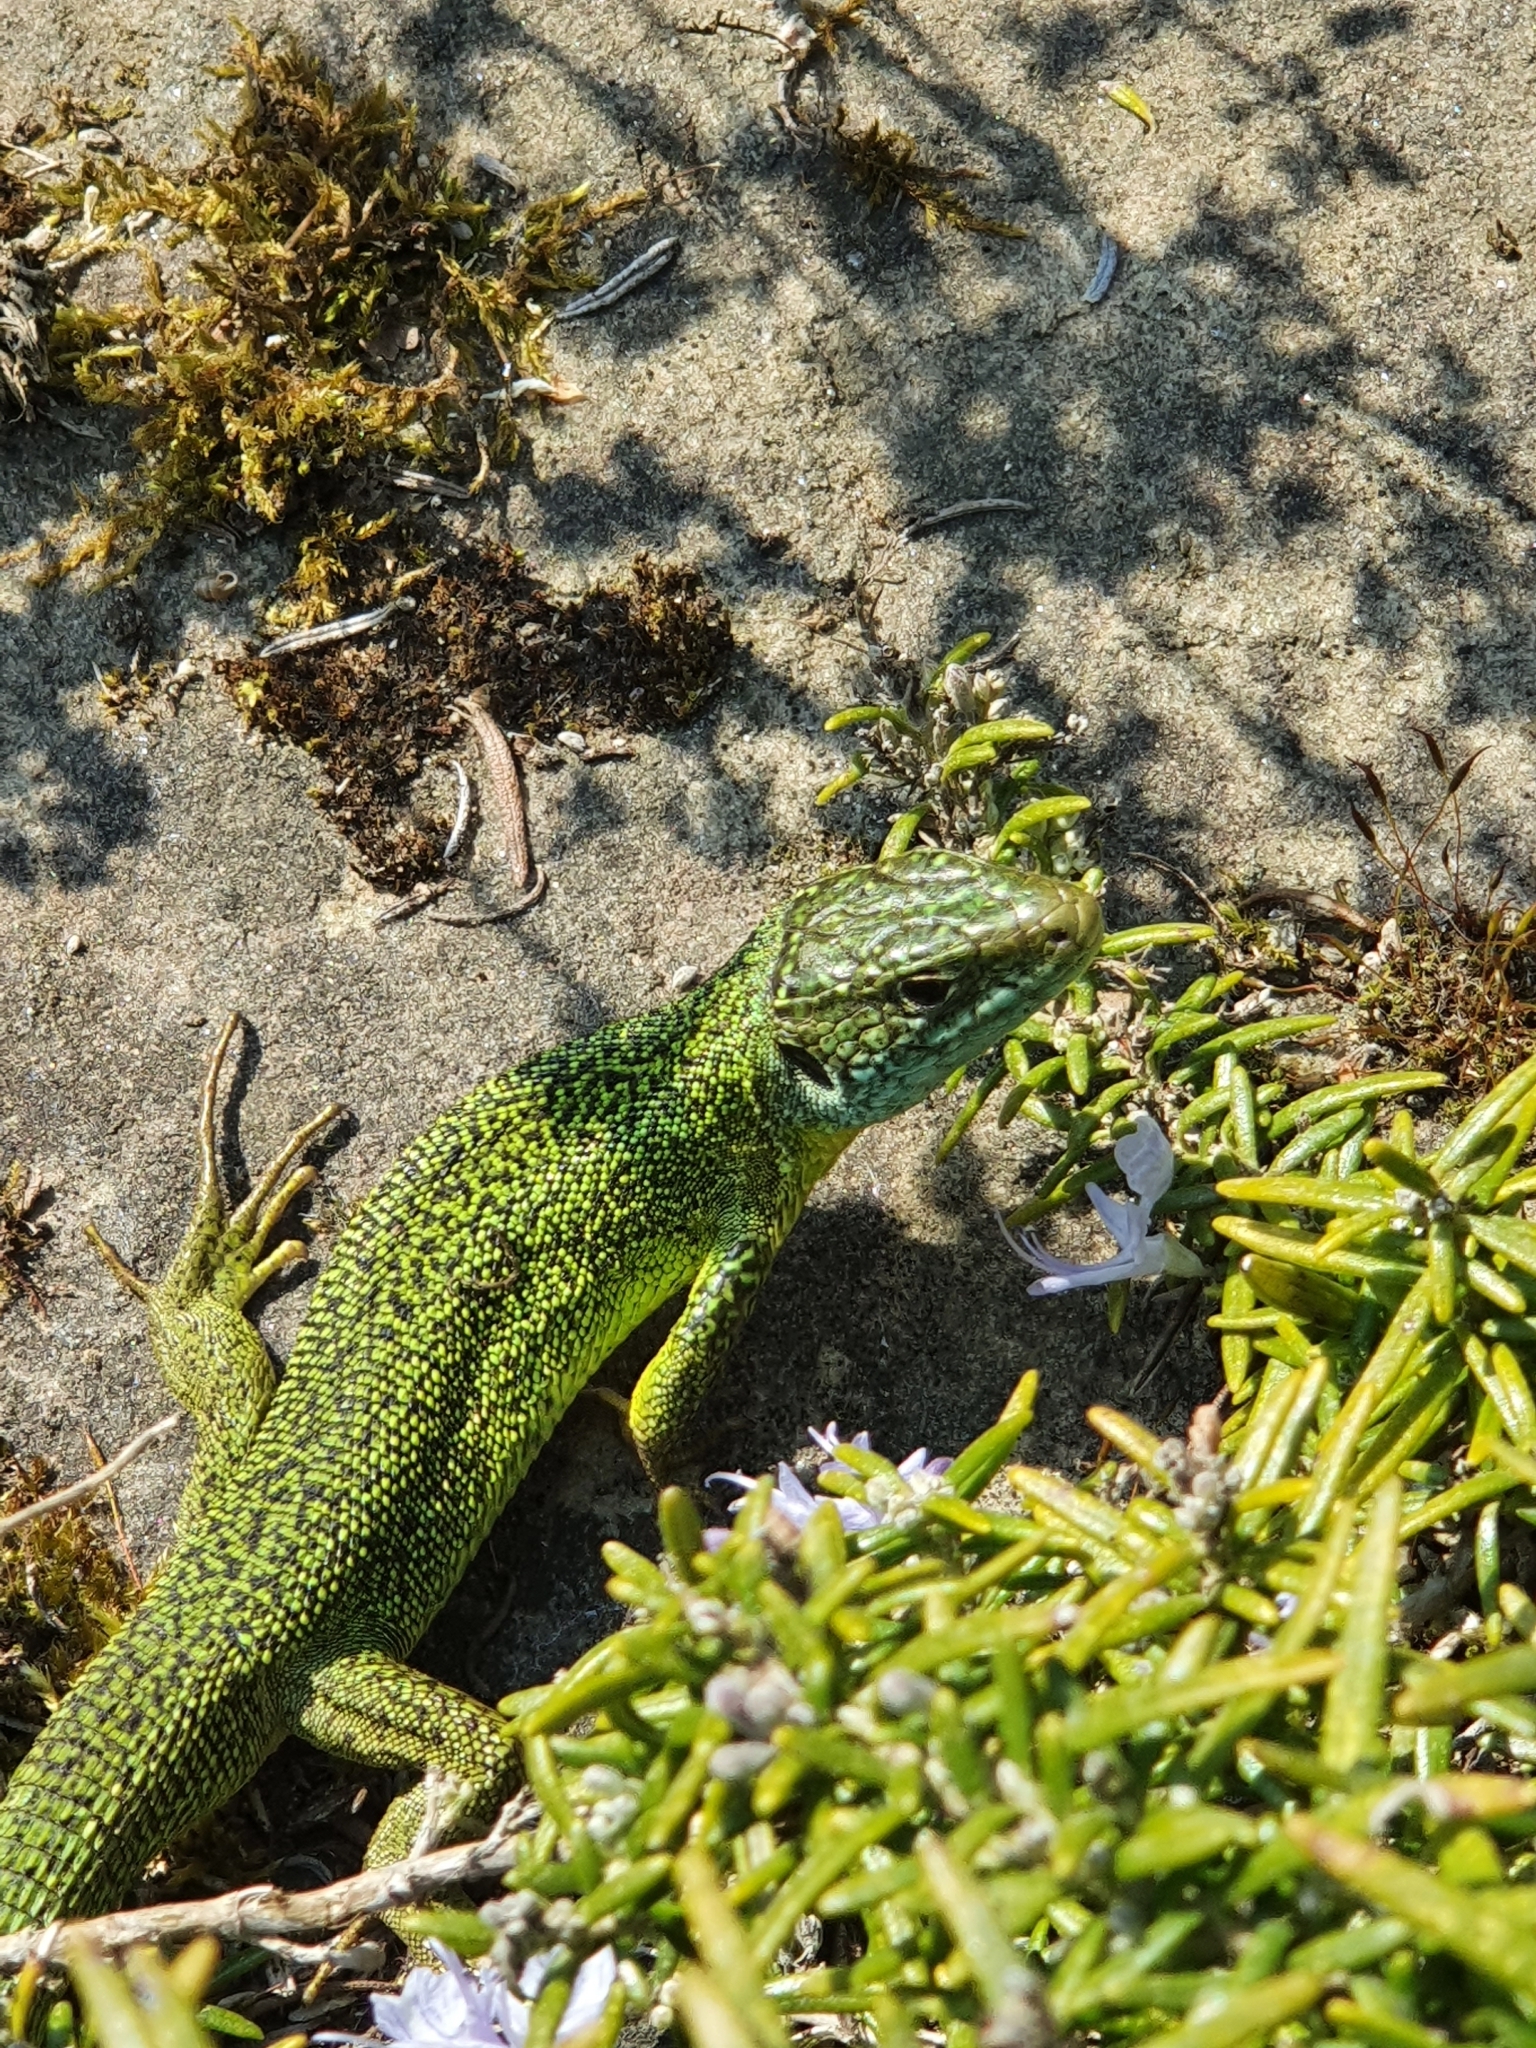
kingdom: Animalia
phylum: Chordata
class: Squamata
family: Lacertidae
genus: Lacerta
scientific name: Lacerta bilineata
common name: Western green lizard
